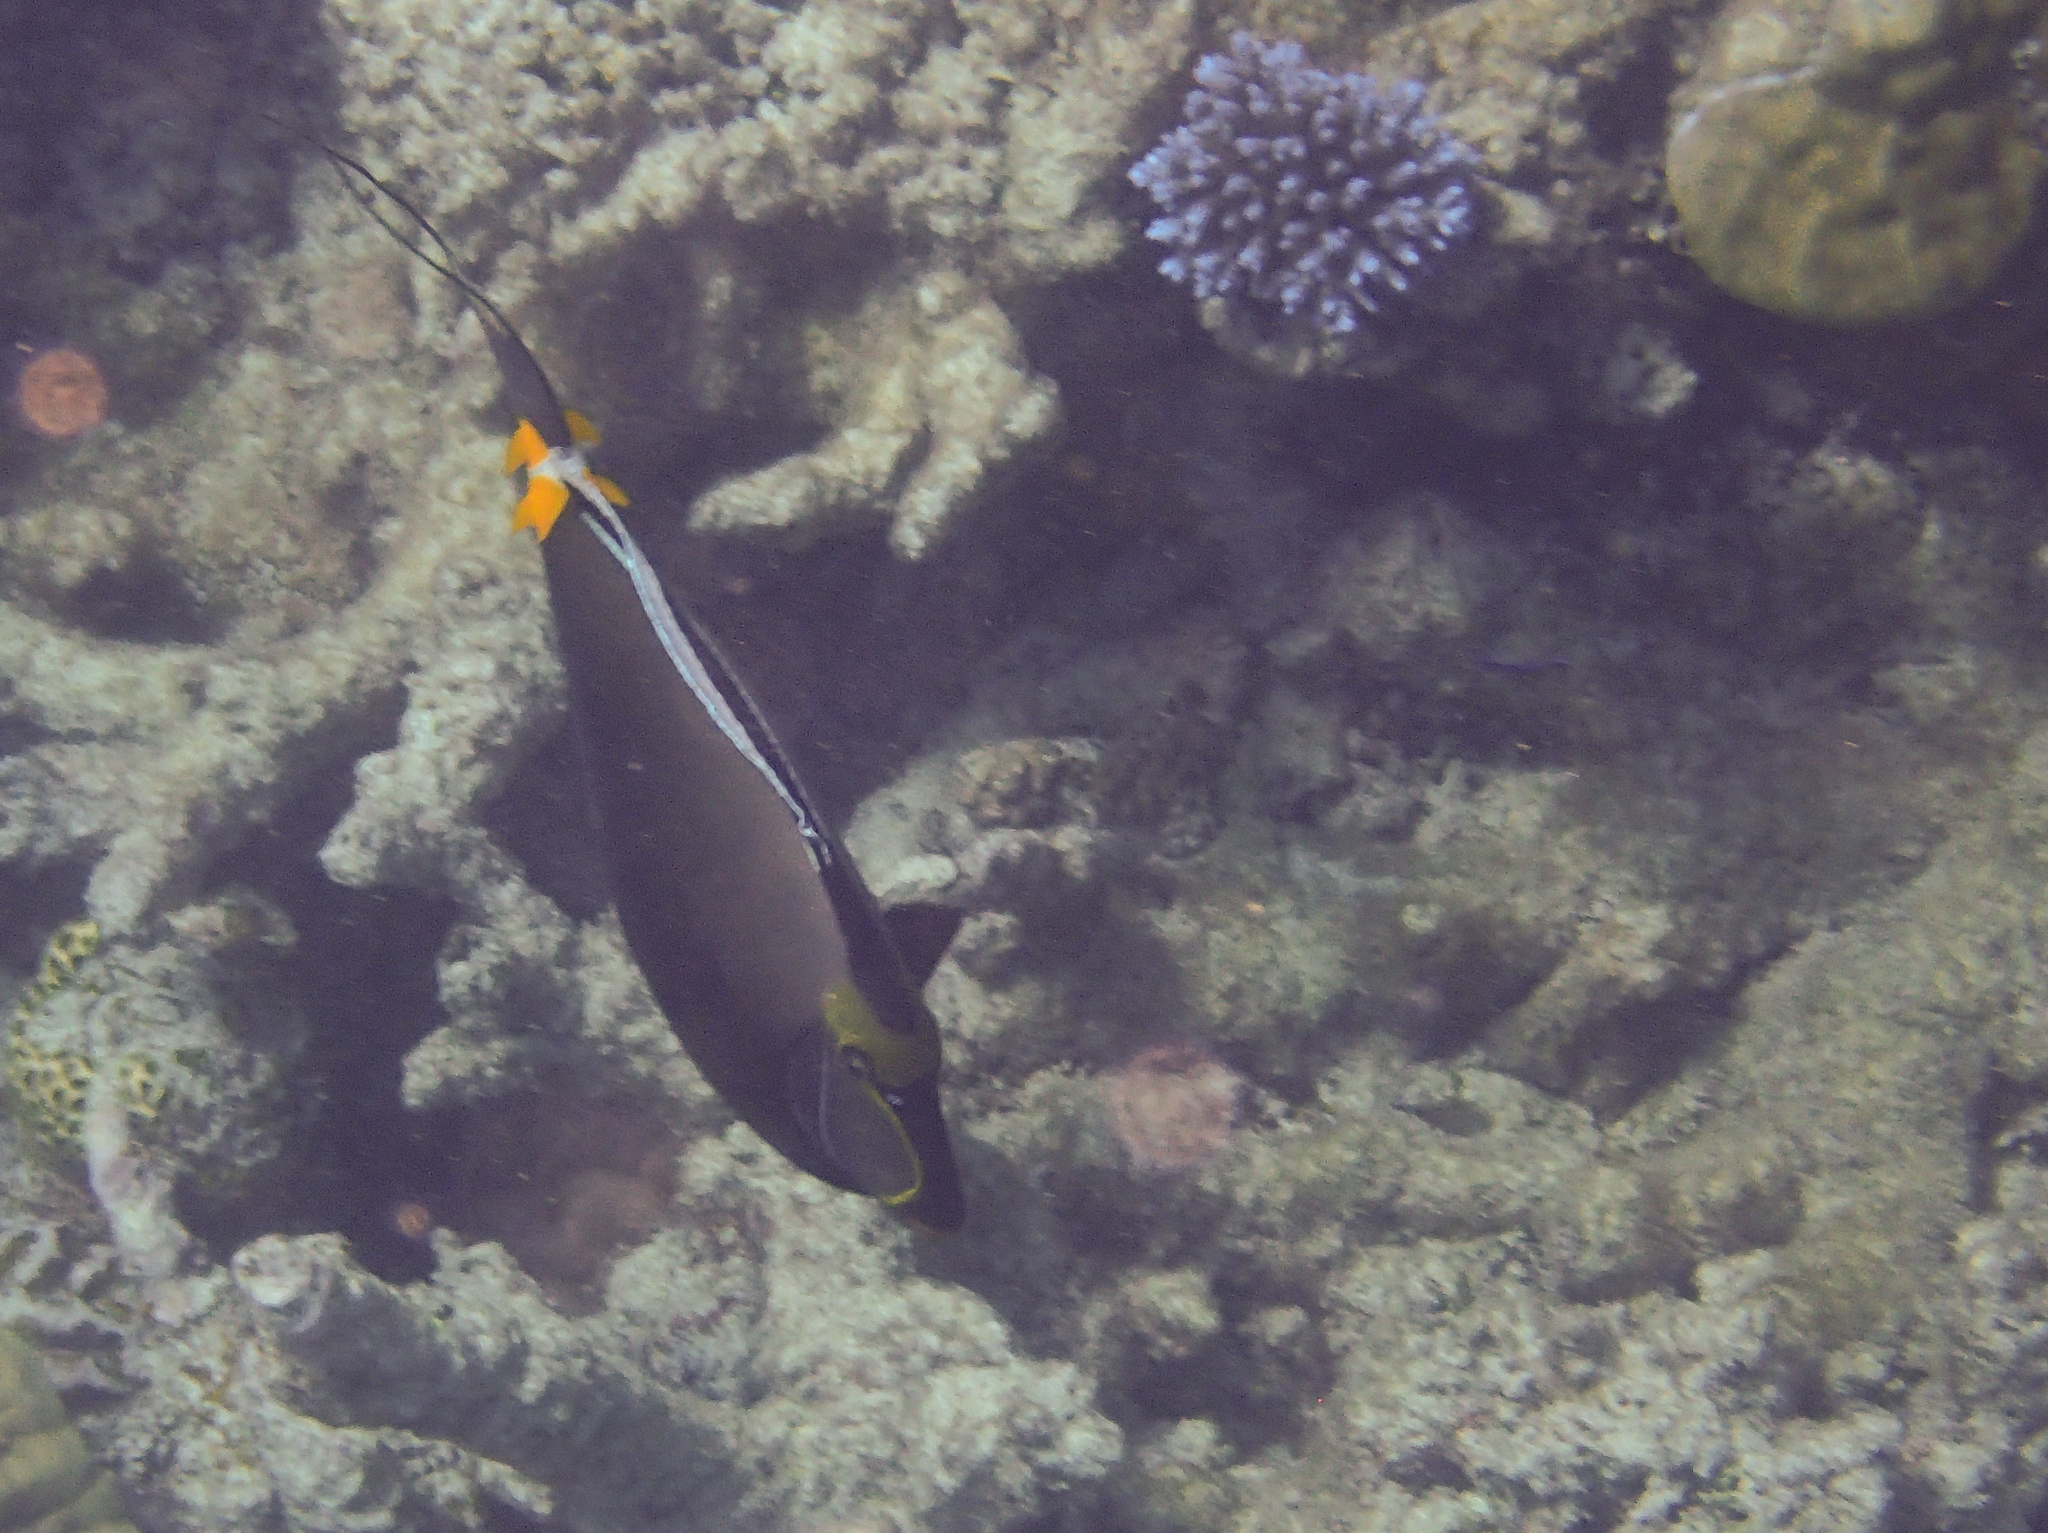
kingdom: Animalia
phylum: Chordata
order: Perciformes
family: Acanthuridae
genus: Naso
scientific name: Naso lituratus
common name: Orangespine unicornfish
